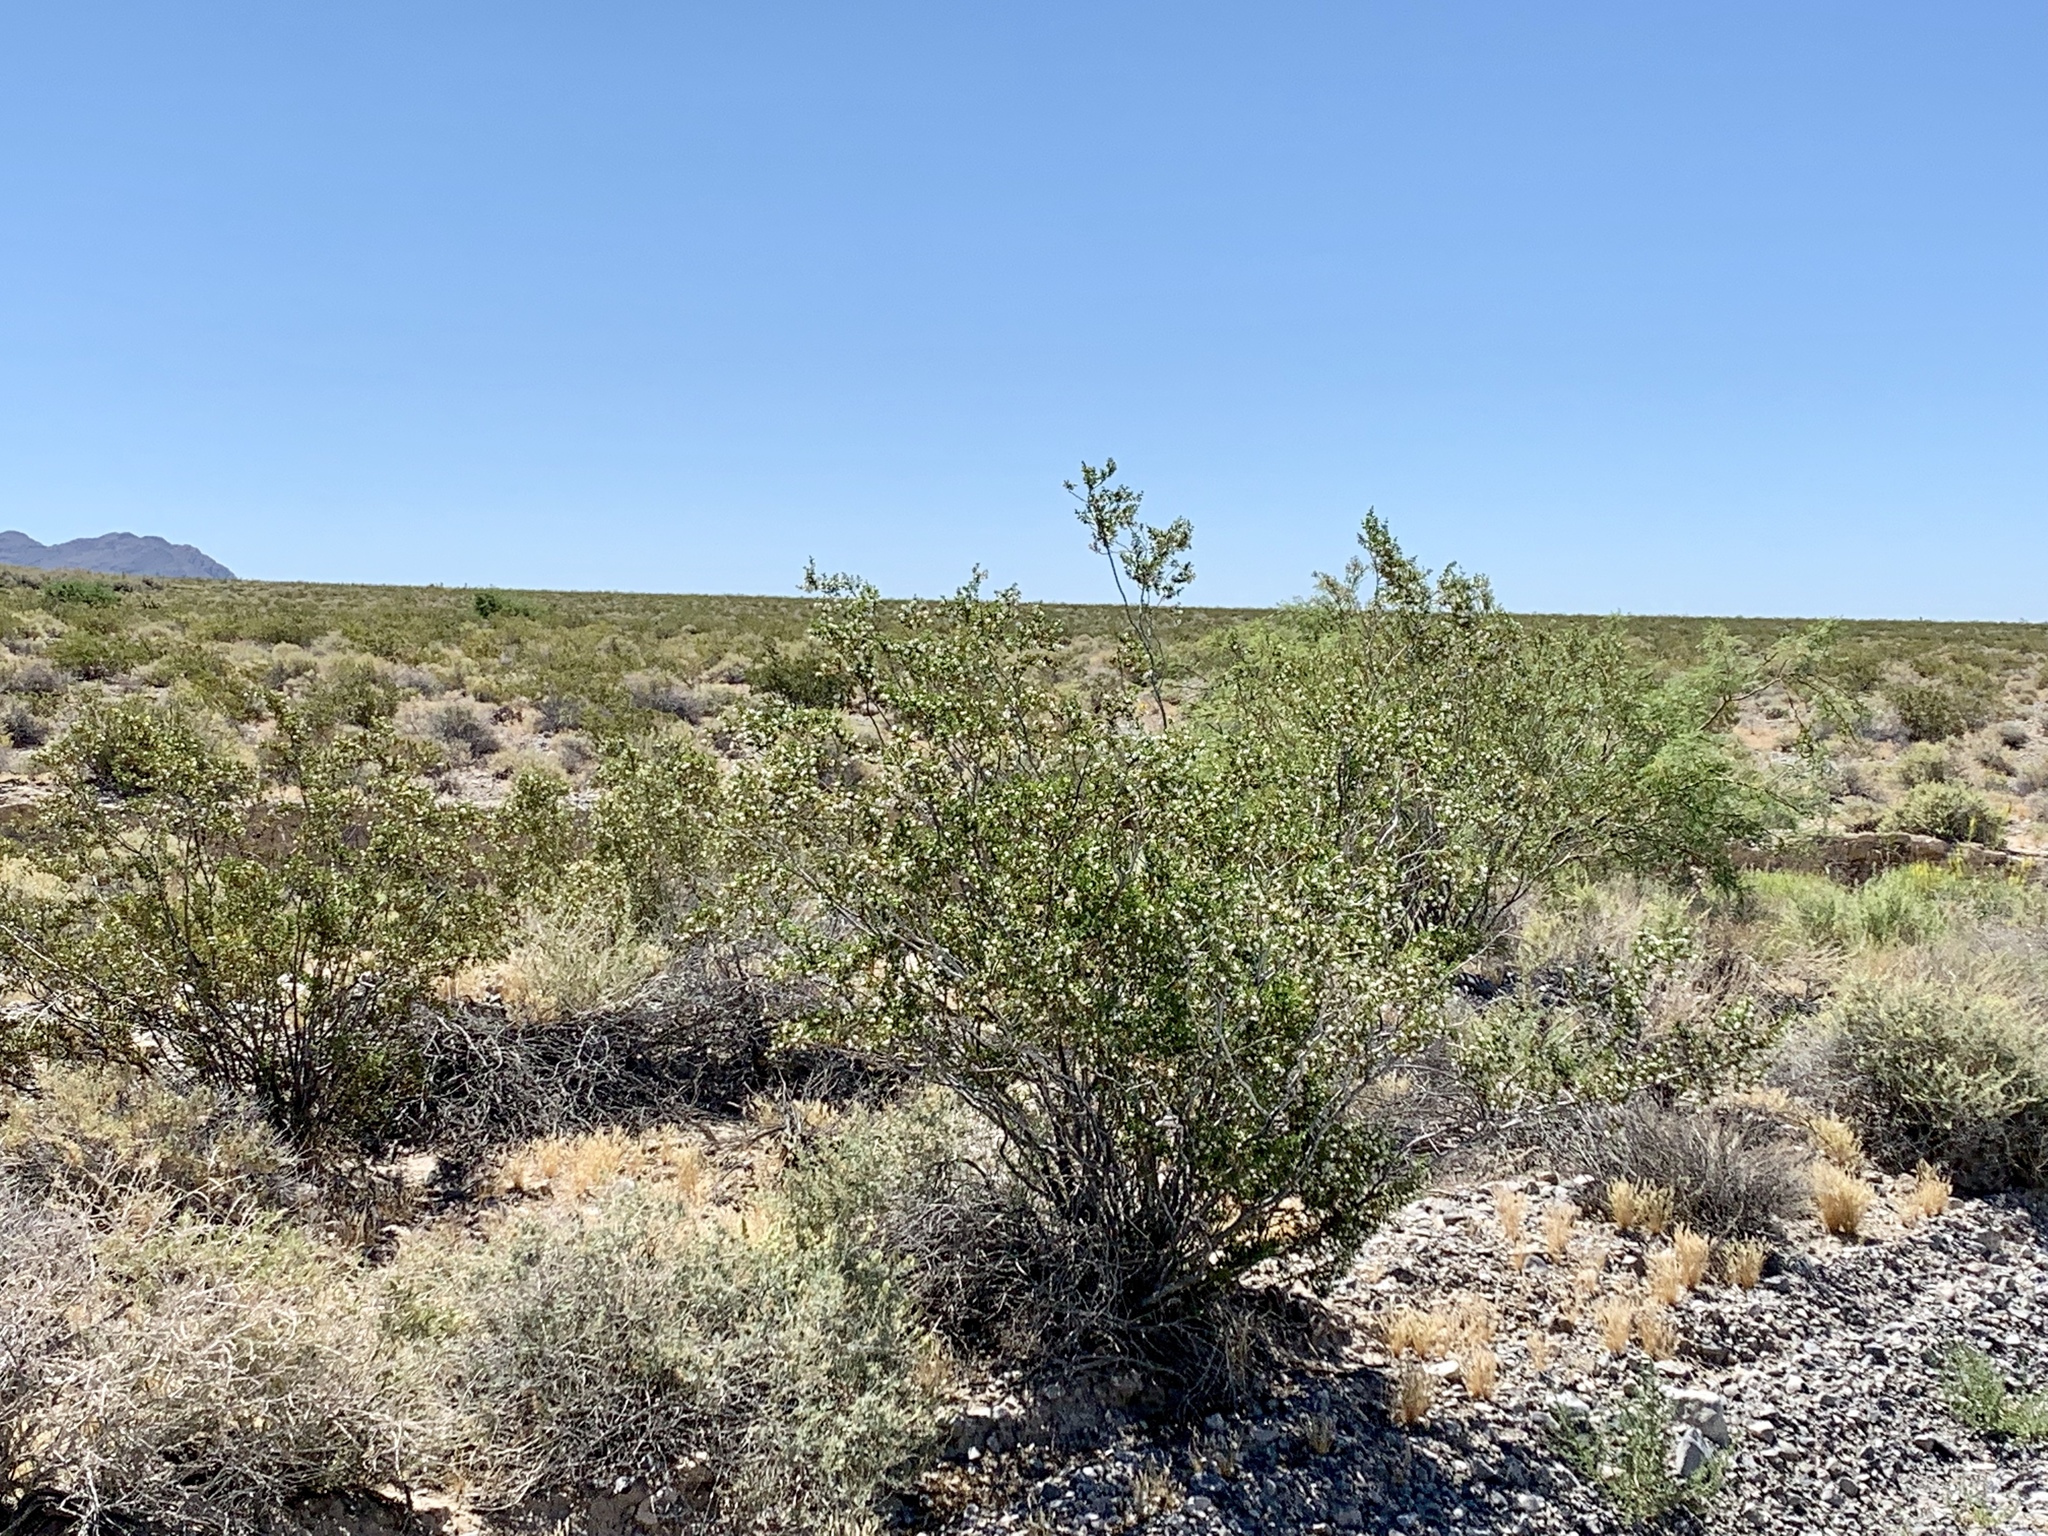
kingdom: Plantae
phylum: Tracheophyta
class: Magnoliopsida
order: Zygophyllales
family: Zygophyllaceae
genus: Larrea
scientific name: Larrea tridentata
